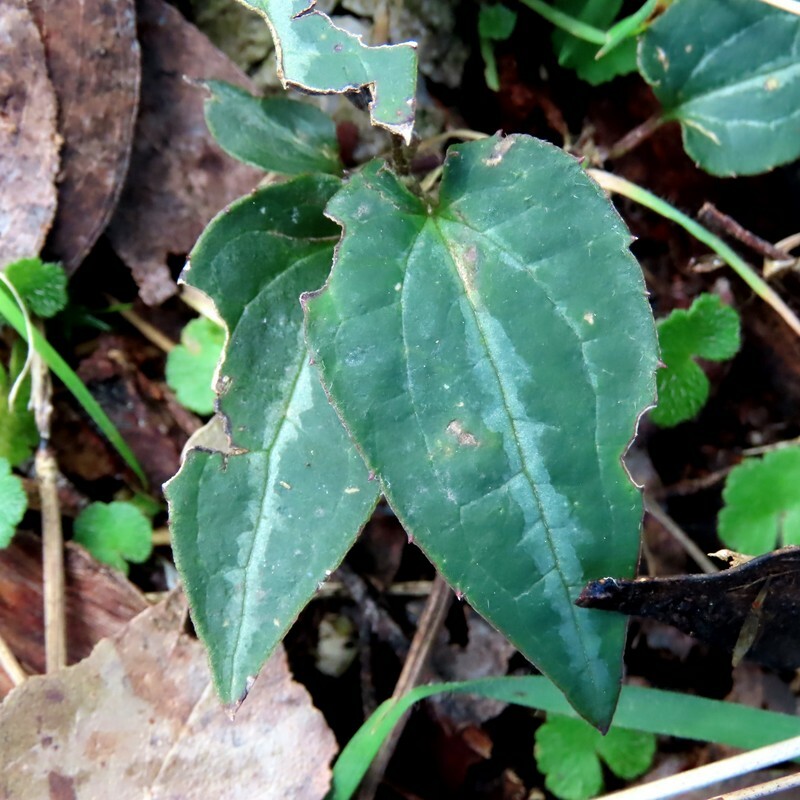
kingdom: Plantae
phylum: Tracheophyta
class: Magnoliopsida
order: Ranunculales
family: Ranunculaceae
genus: Clematis
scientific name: Clematis aristata
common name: Mountain clematis
